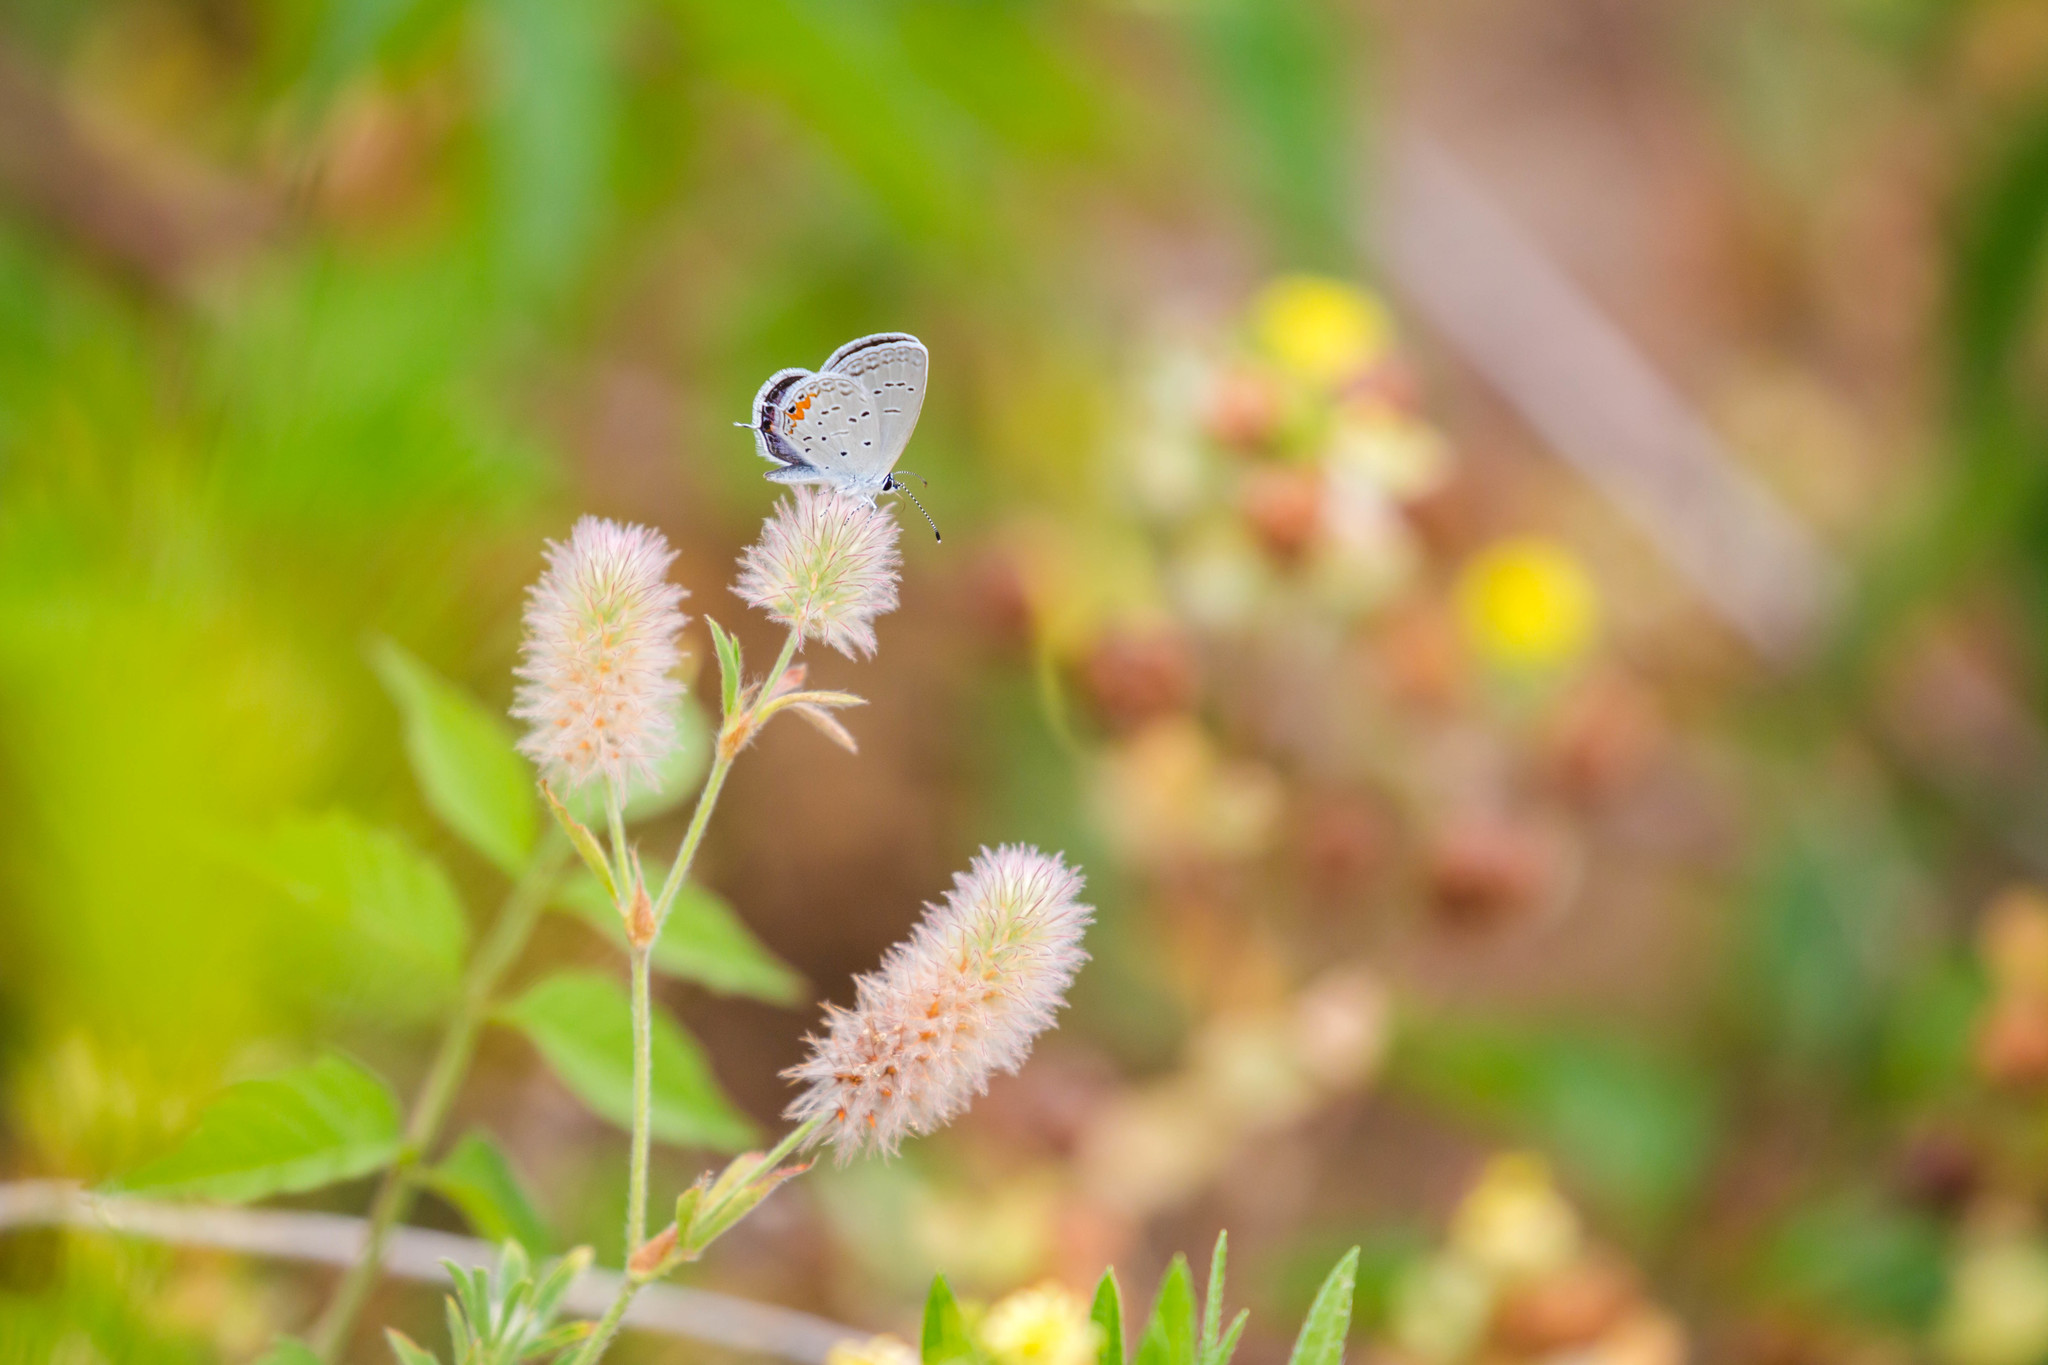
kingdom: Animalia
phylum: Arthropoda
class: Insecta
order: Lepidoptera
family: Lycaenidae
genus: Elkalyce
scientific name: Elkalyce comyntas
